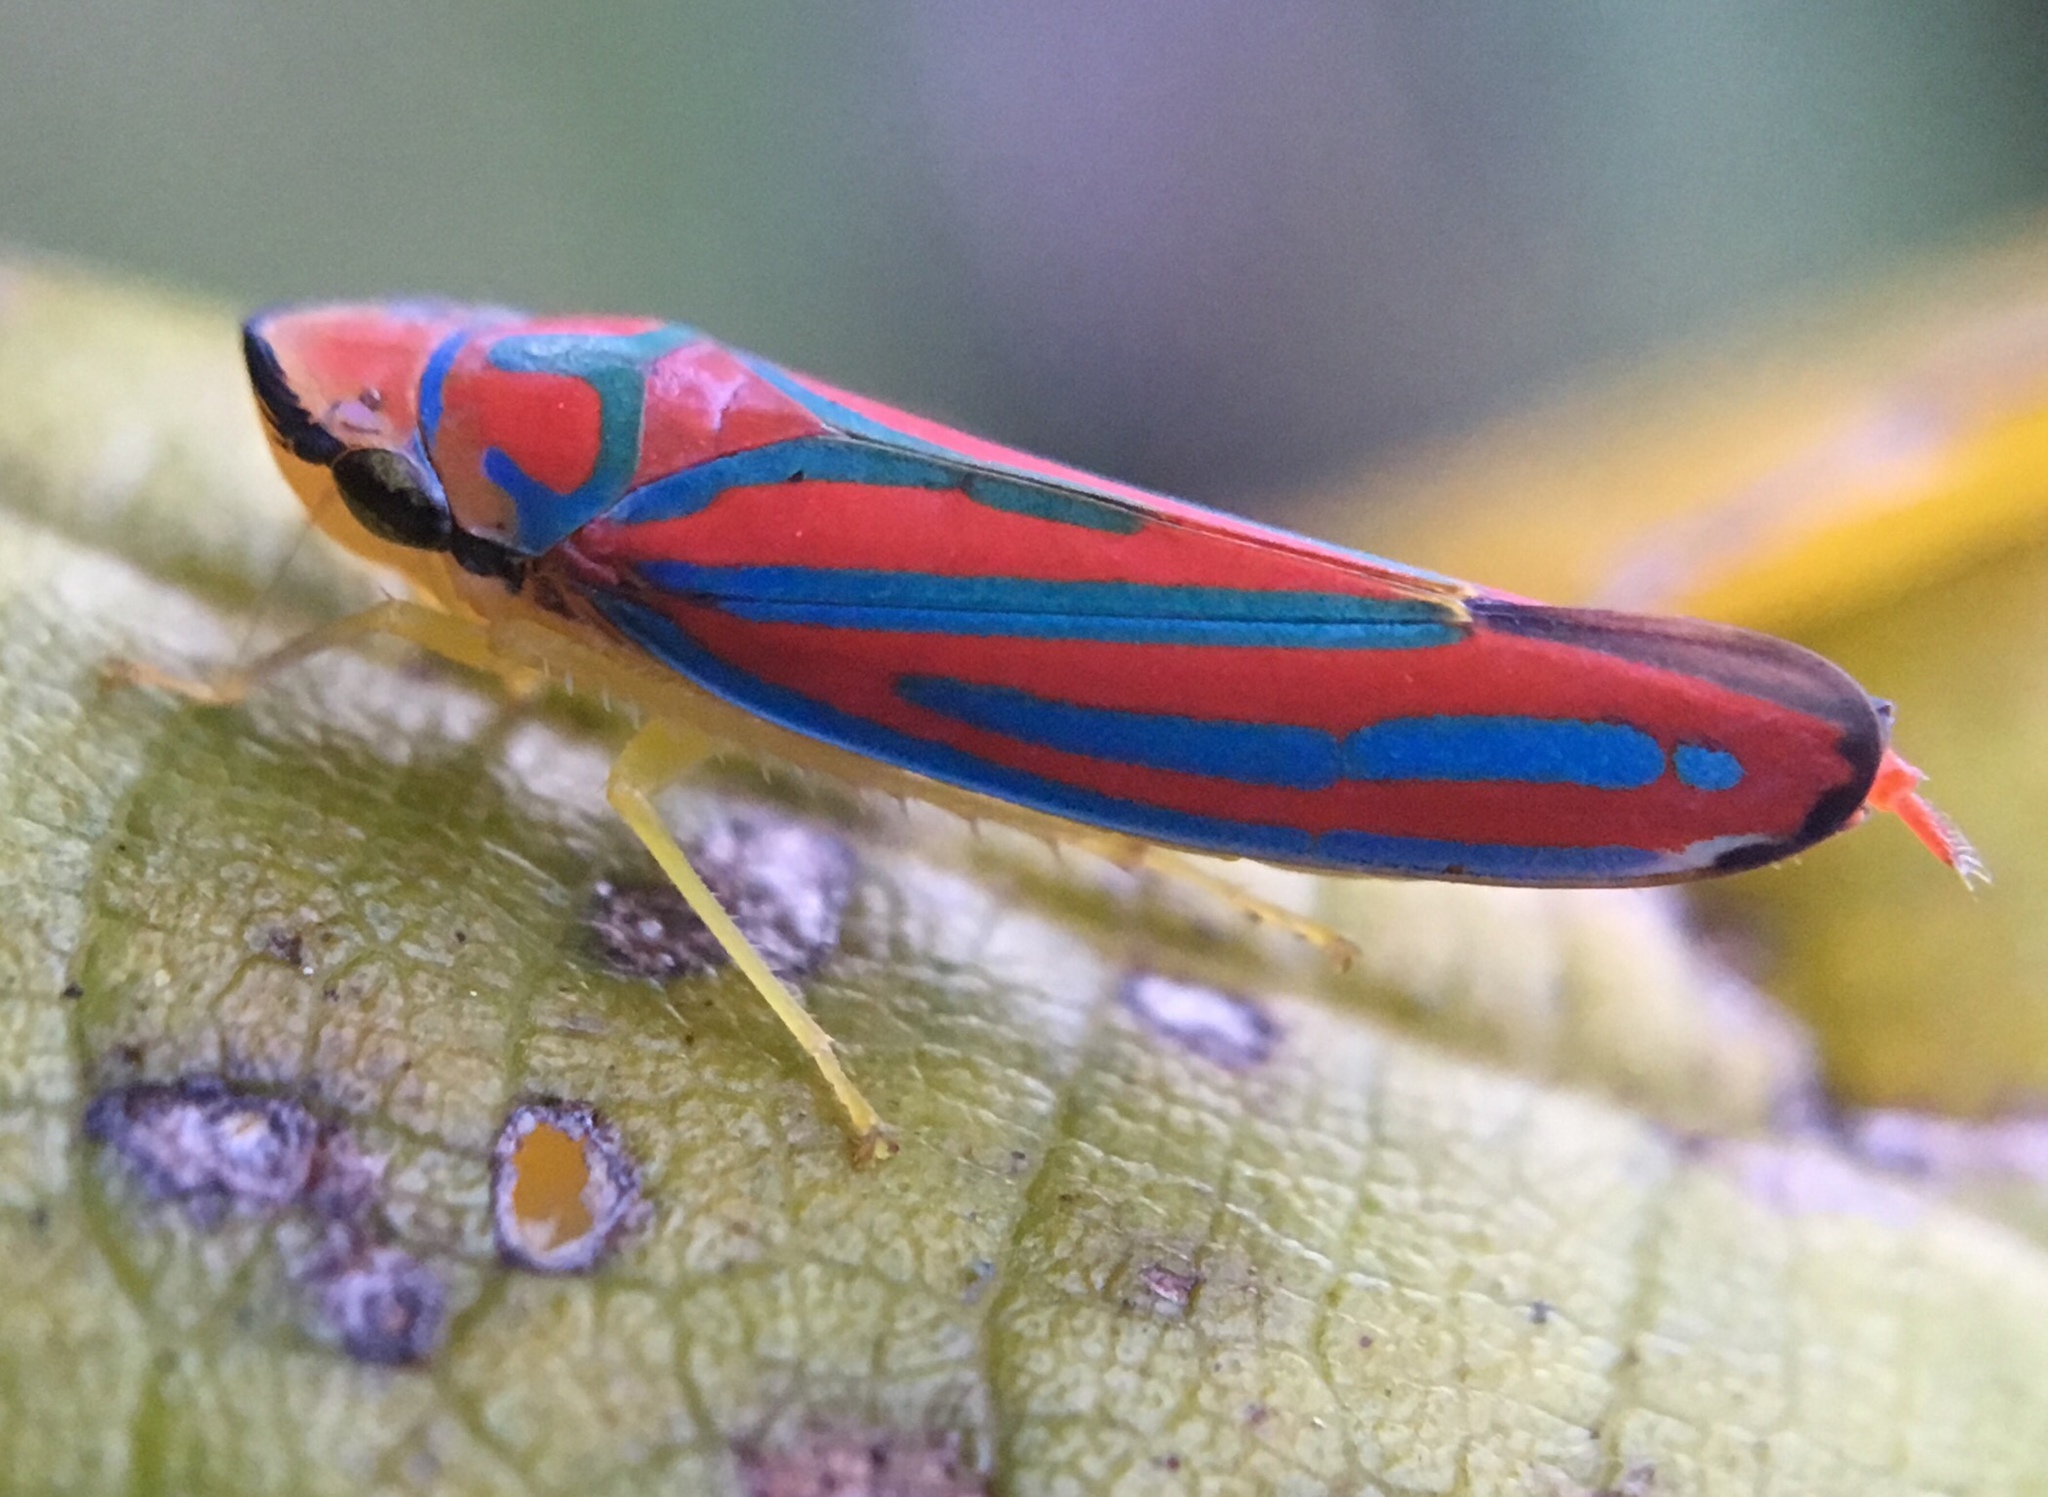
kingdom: Animalia
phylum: Arthropoda
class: Insecta
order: Hemiptera
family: Cicadellidae
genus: Graphocephala
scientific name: Graphocephala coccinea
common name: Candy-striped leafhopper
